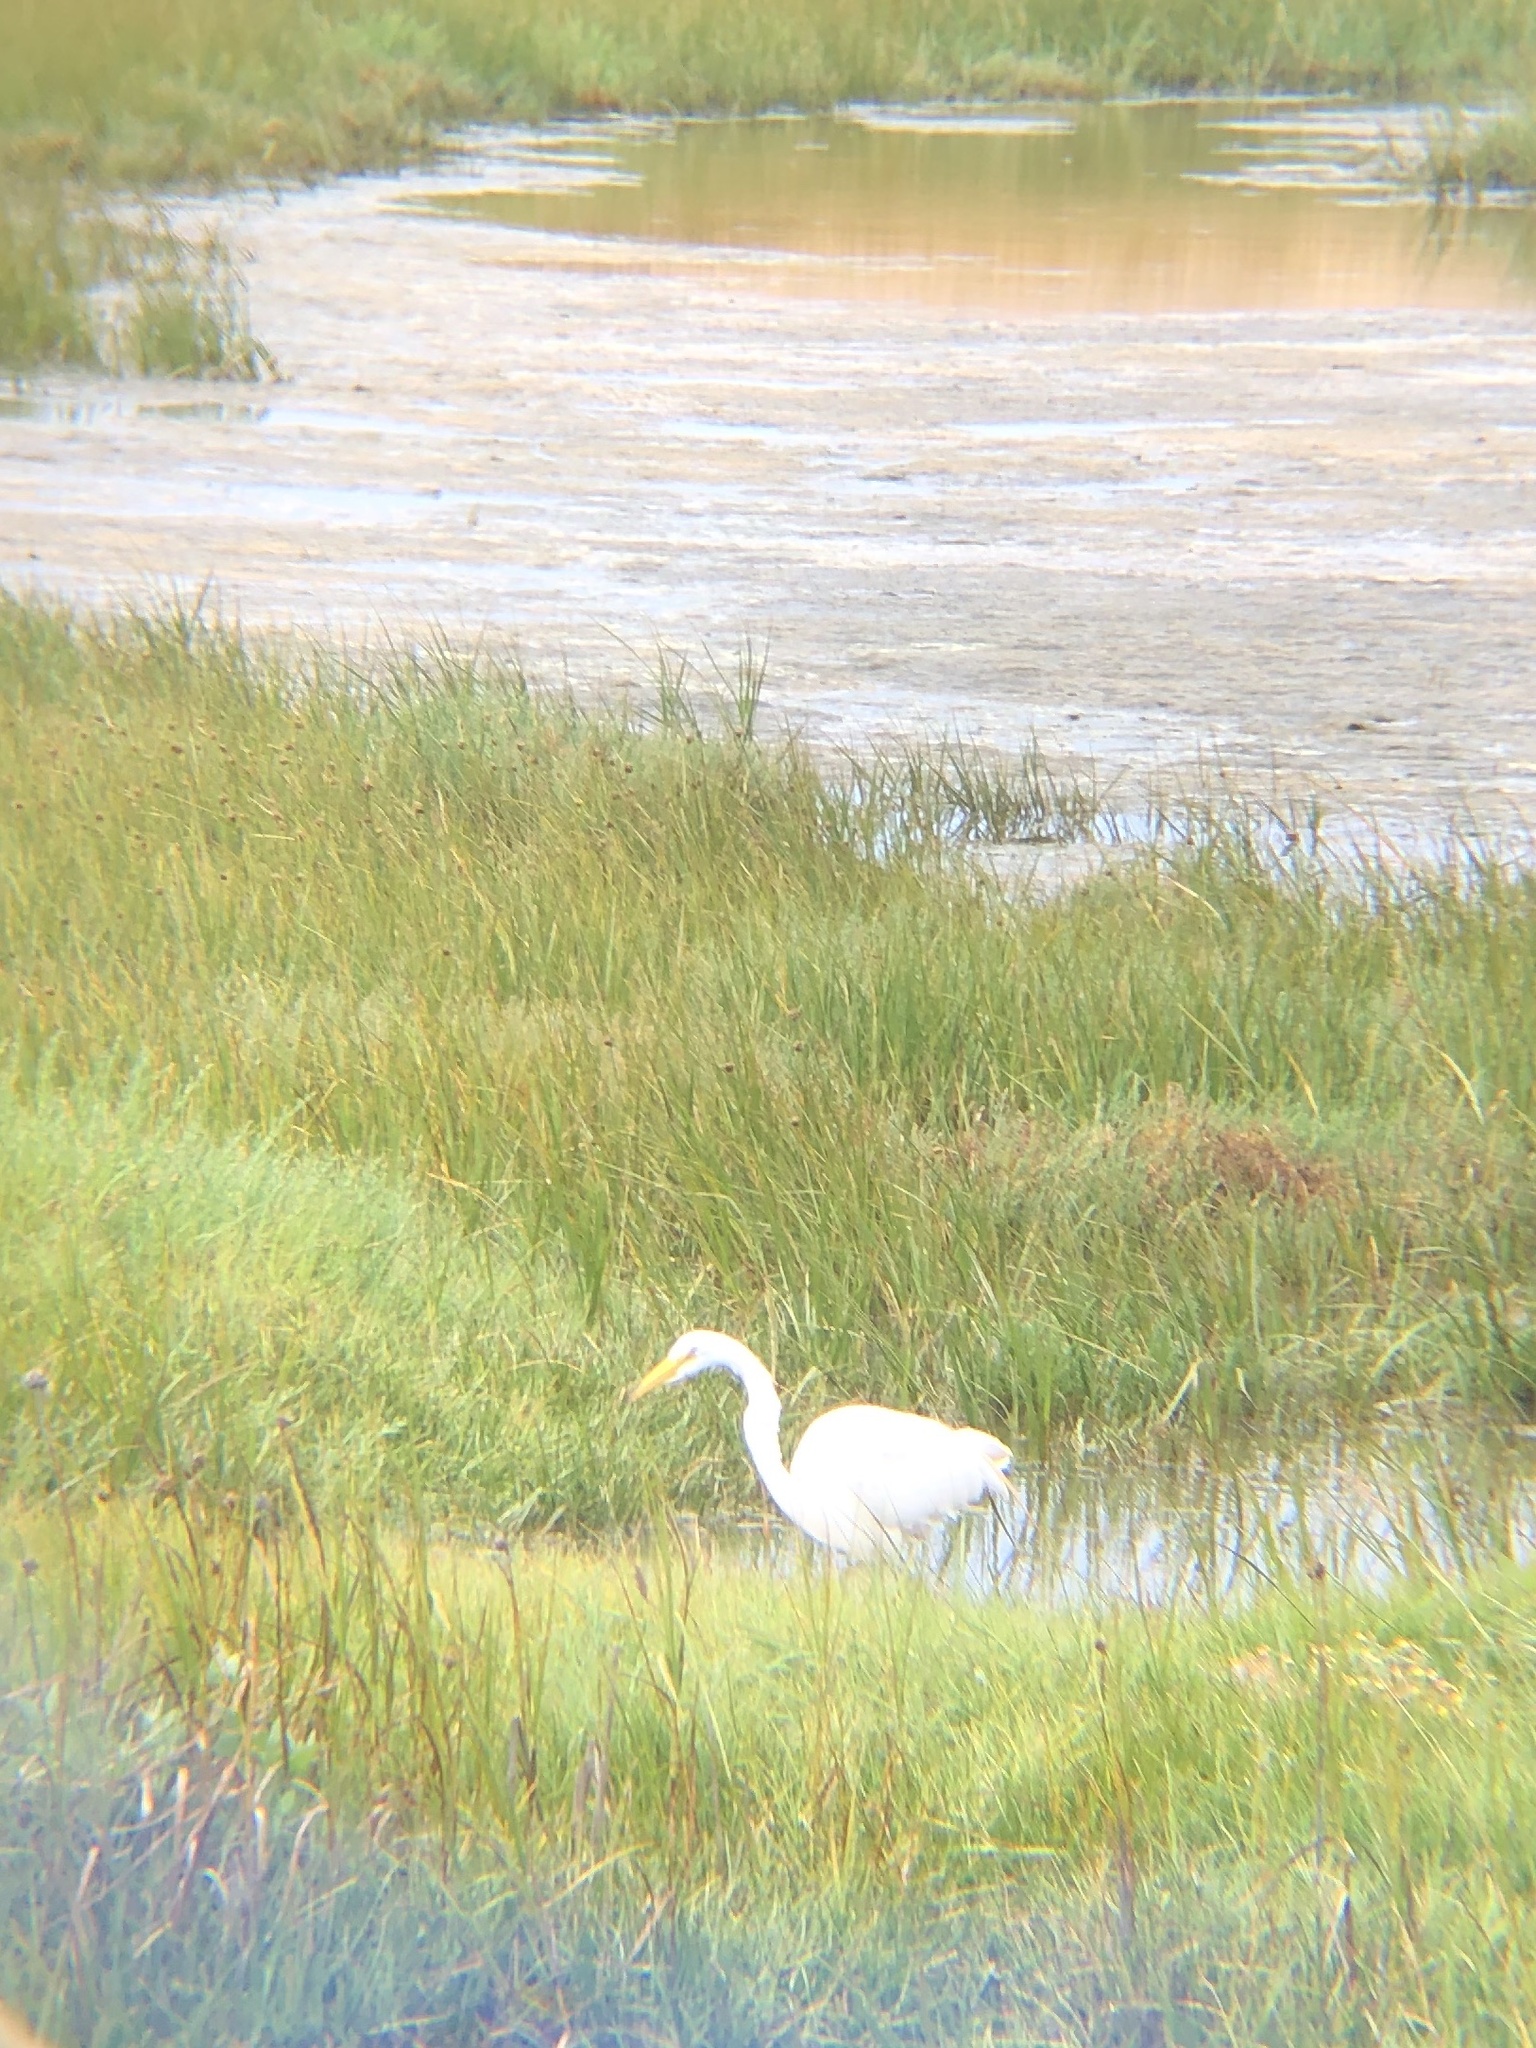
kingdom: Animalia
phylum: Chordata
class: Aves
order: Pelecaniformes
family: Ardeidae
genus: Ardea
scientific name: Ardea alba
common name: Great egret
